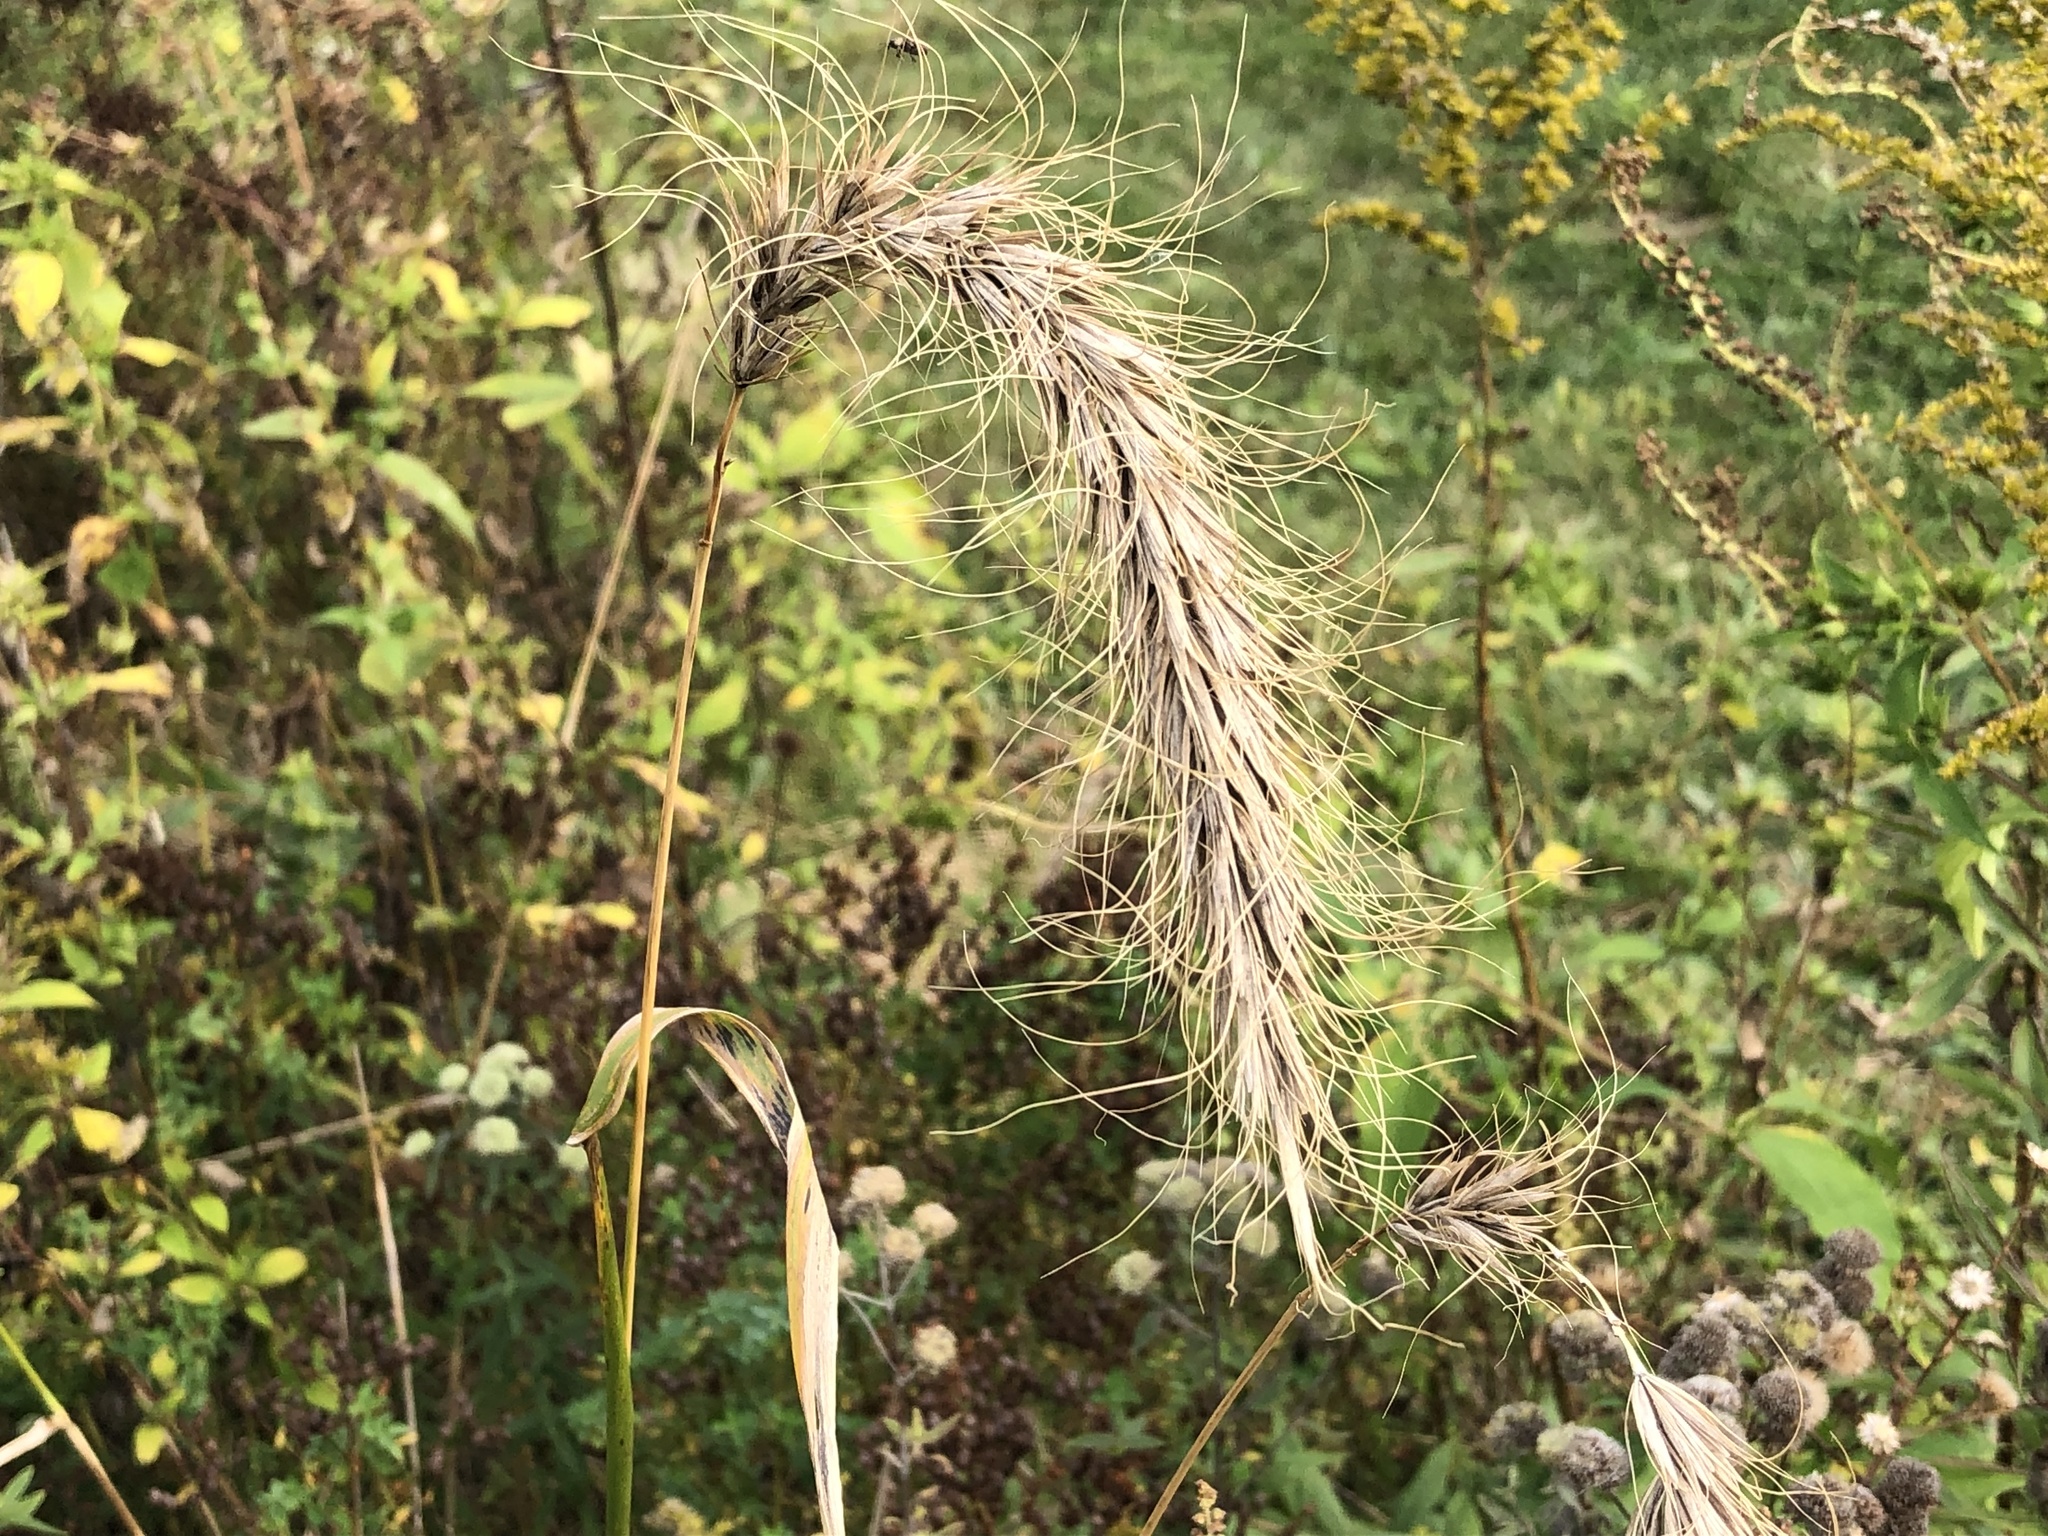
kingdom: Plantae
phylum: Tracheophyta
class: Liliopsida
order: Poales
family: Poaceae
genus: Elymus
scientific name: Elymus canadensis
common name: Canada wild rye
